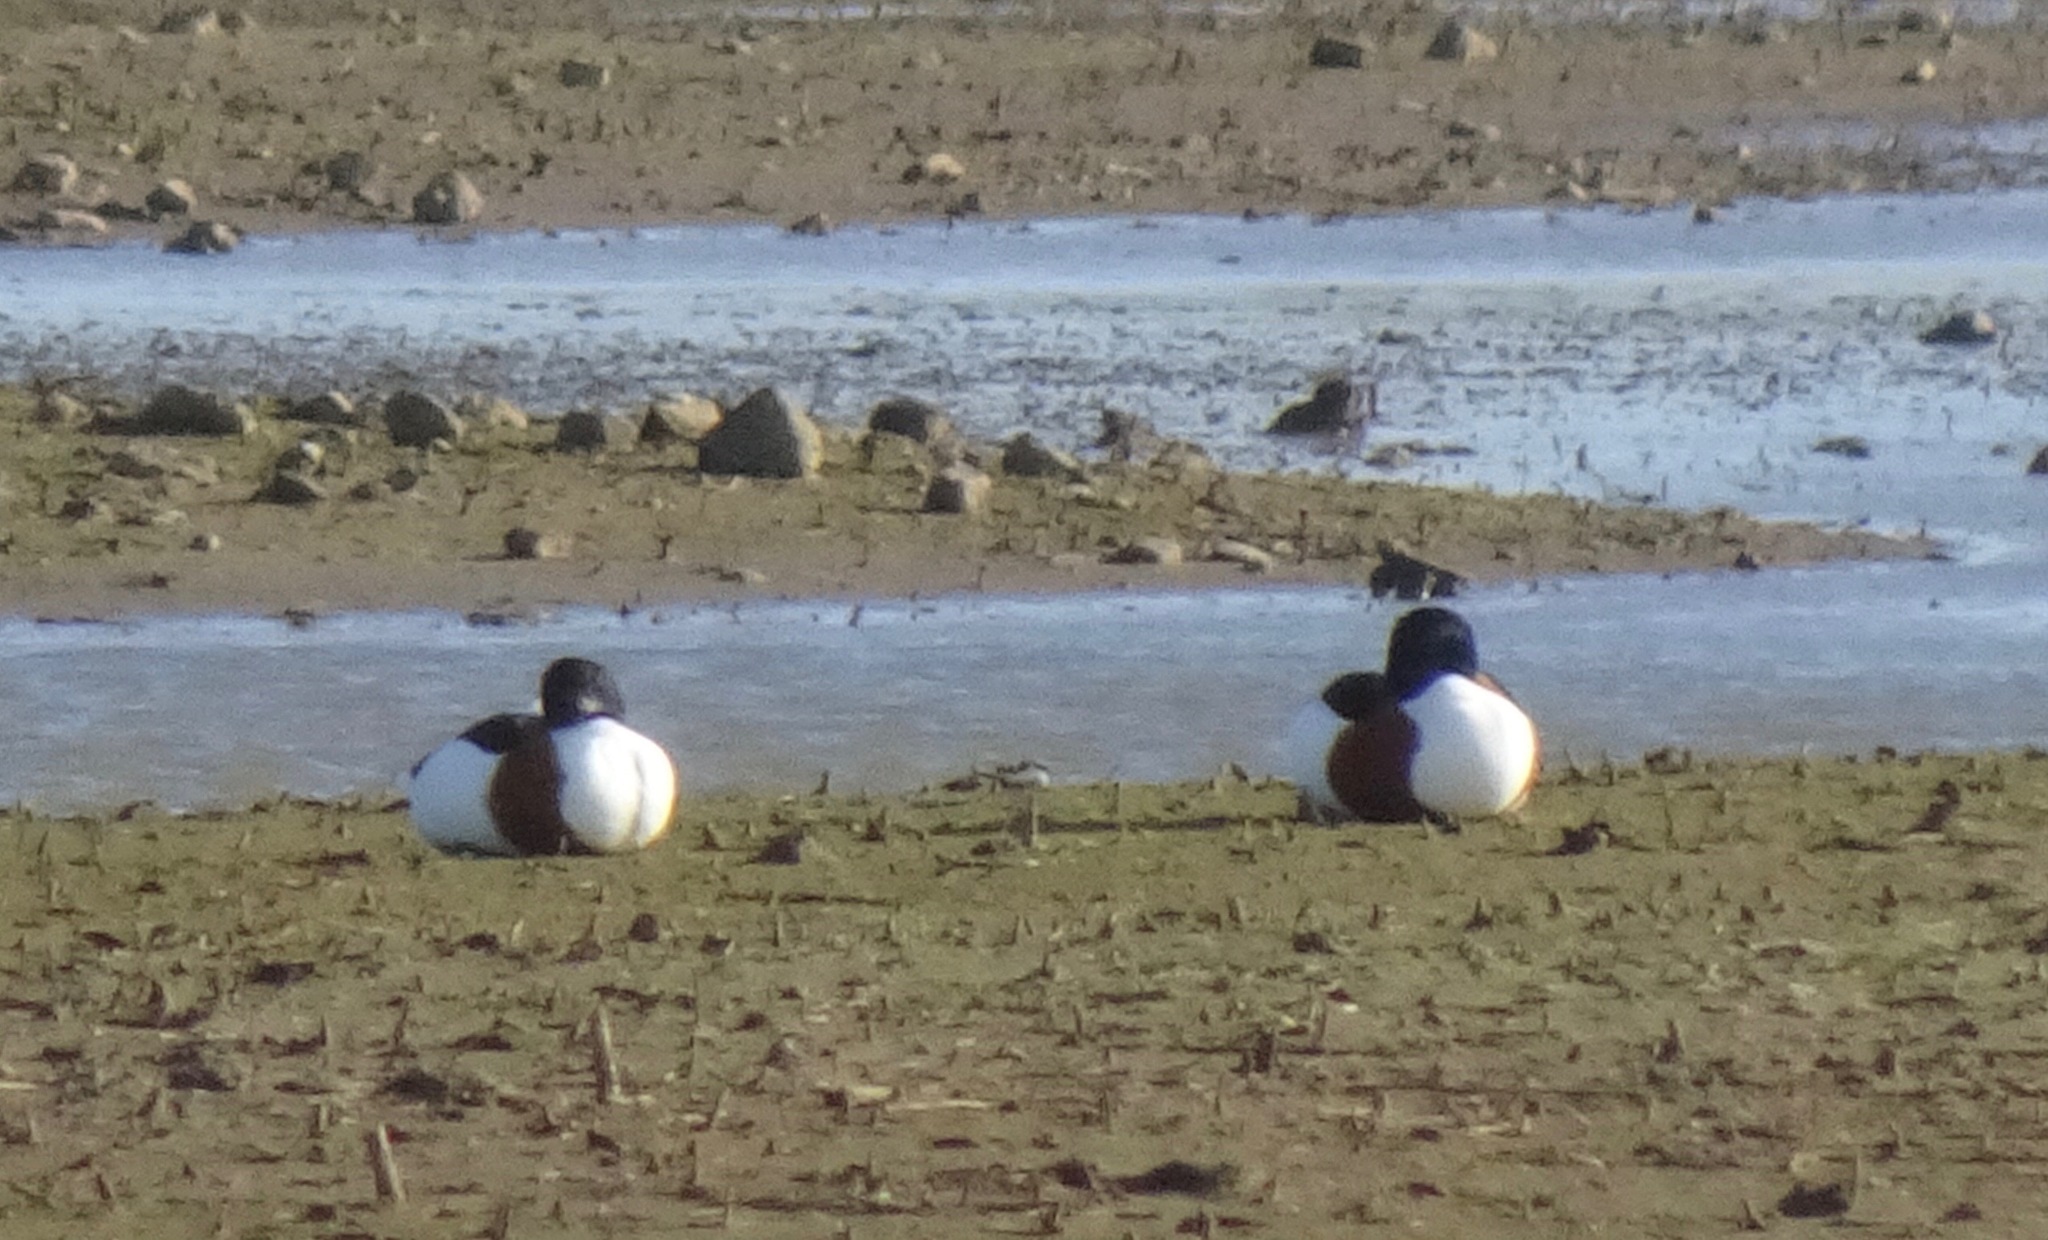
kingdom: Animalia
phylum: Chordata
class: Aves
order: Anseriformes
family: Anatidae
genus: Tadorna
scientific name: Tadorna tadorna
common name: Common shelduck
